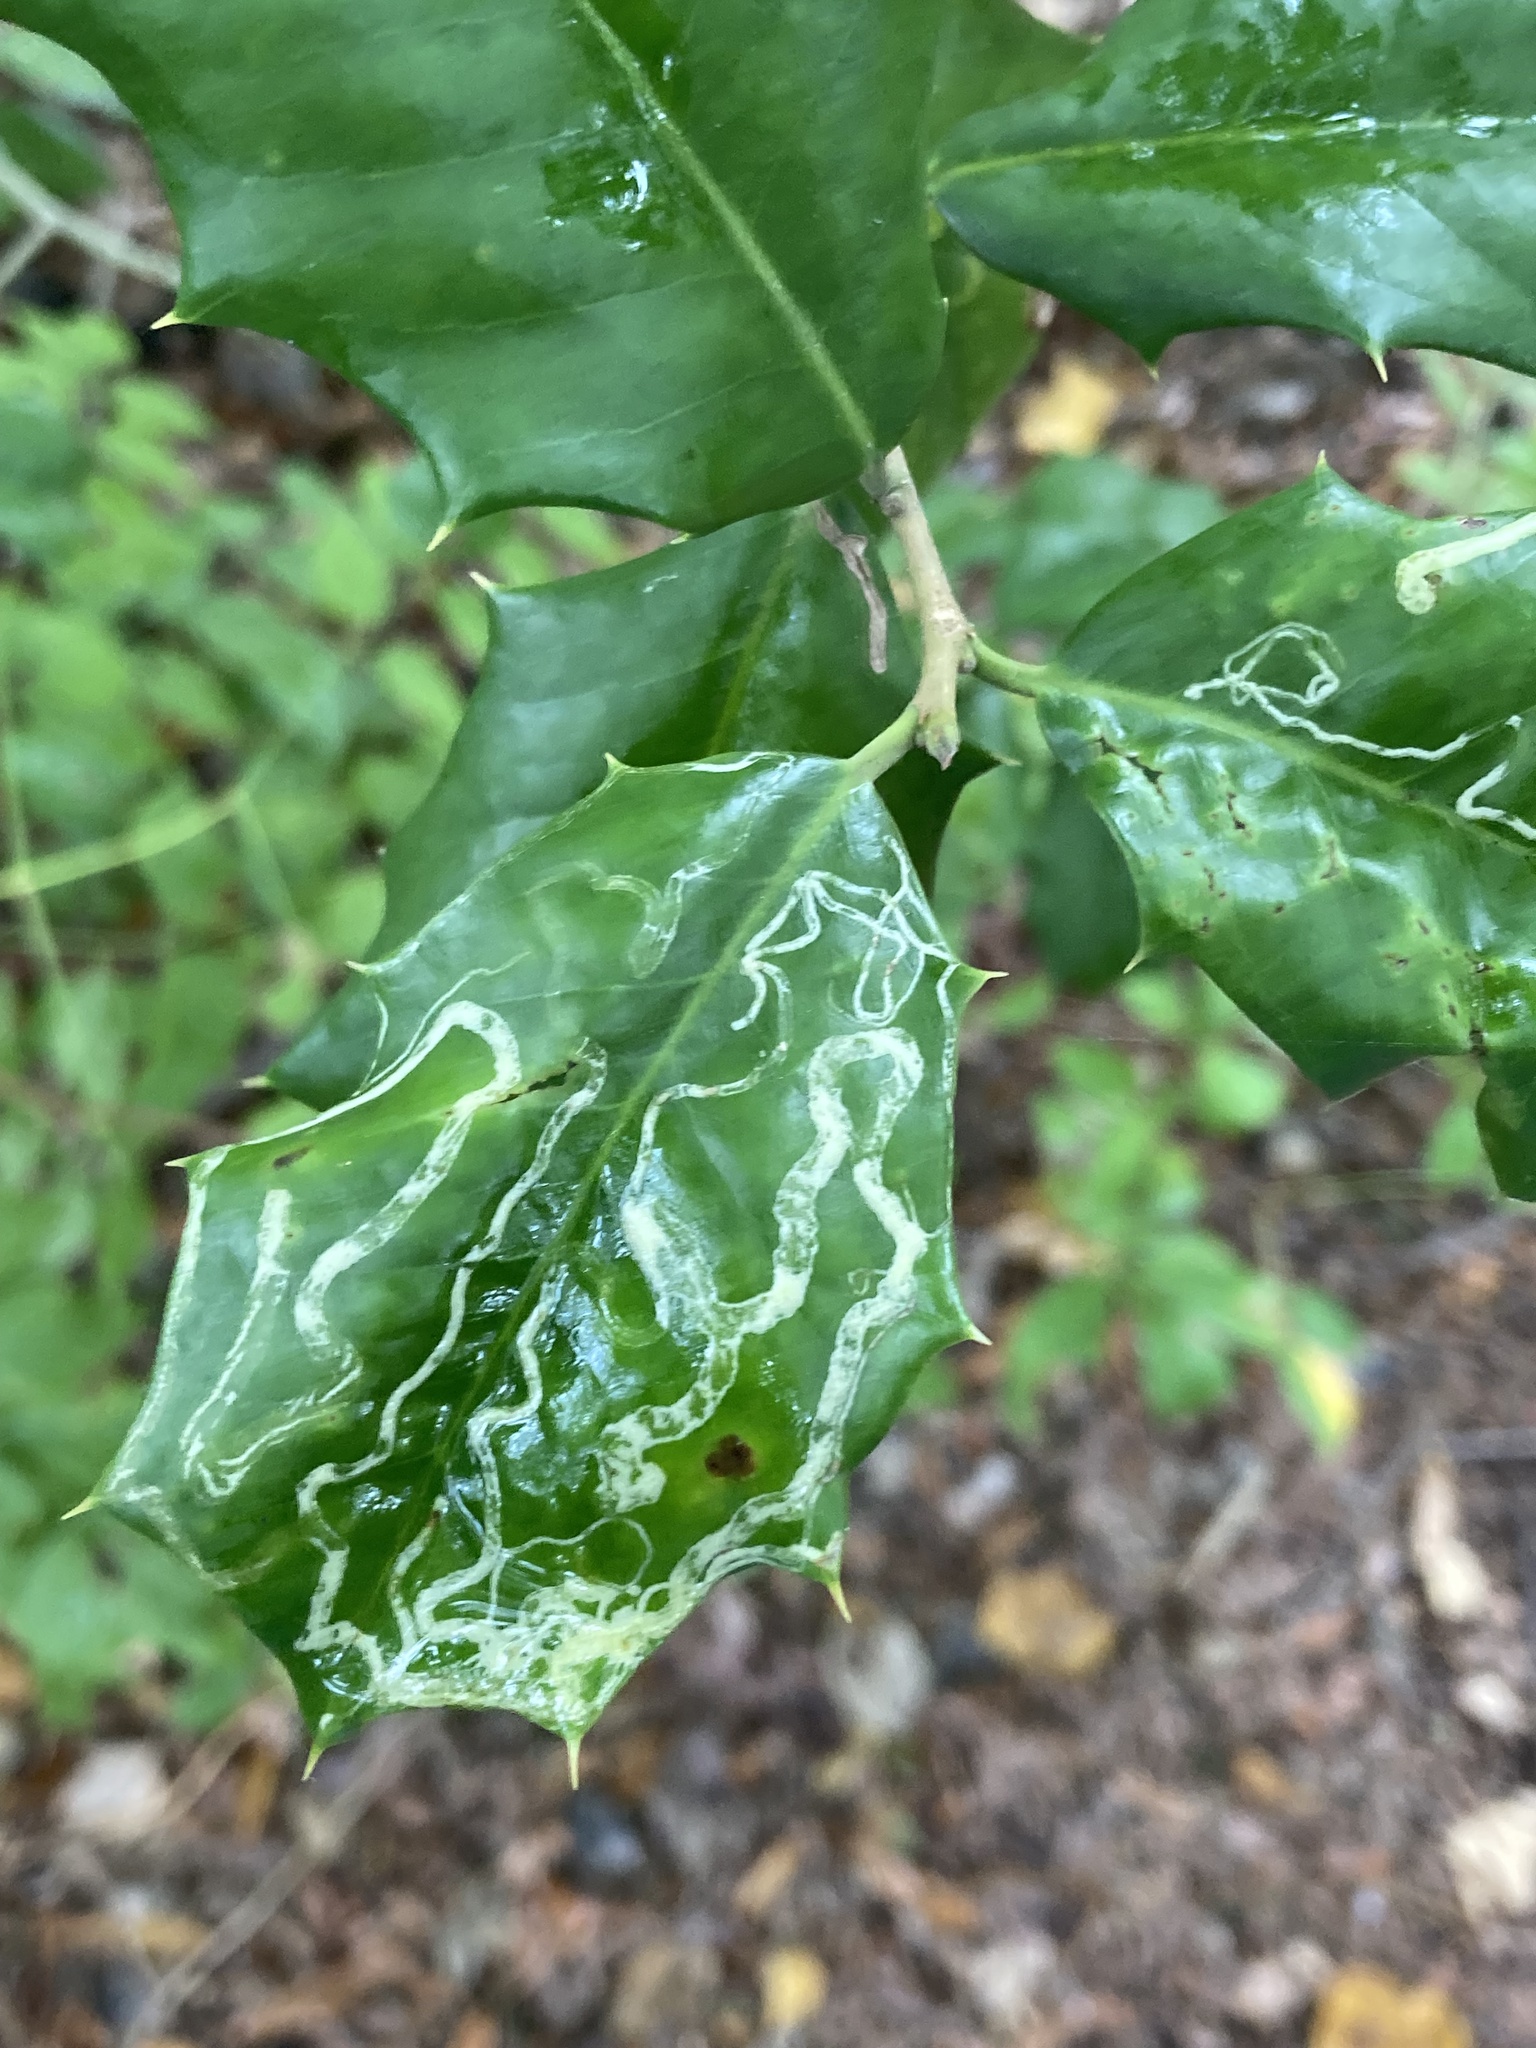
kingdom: Animalia
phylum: Arthropoda
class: Insecta
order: Diptera
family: Agromyzidae
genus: Phytomyza
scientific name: Phytomyza opacae
